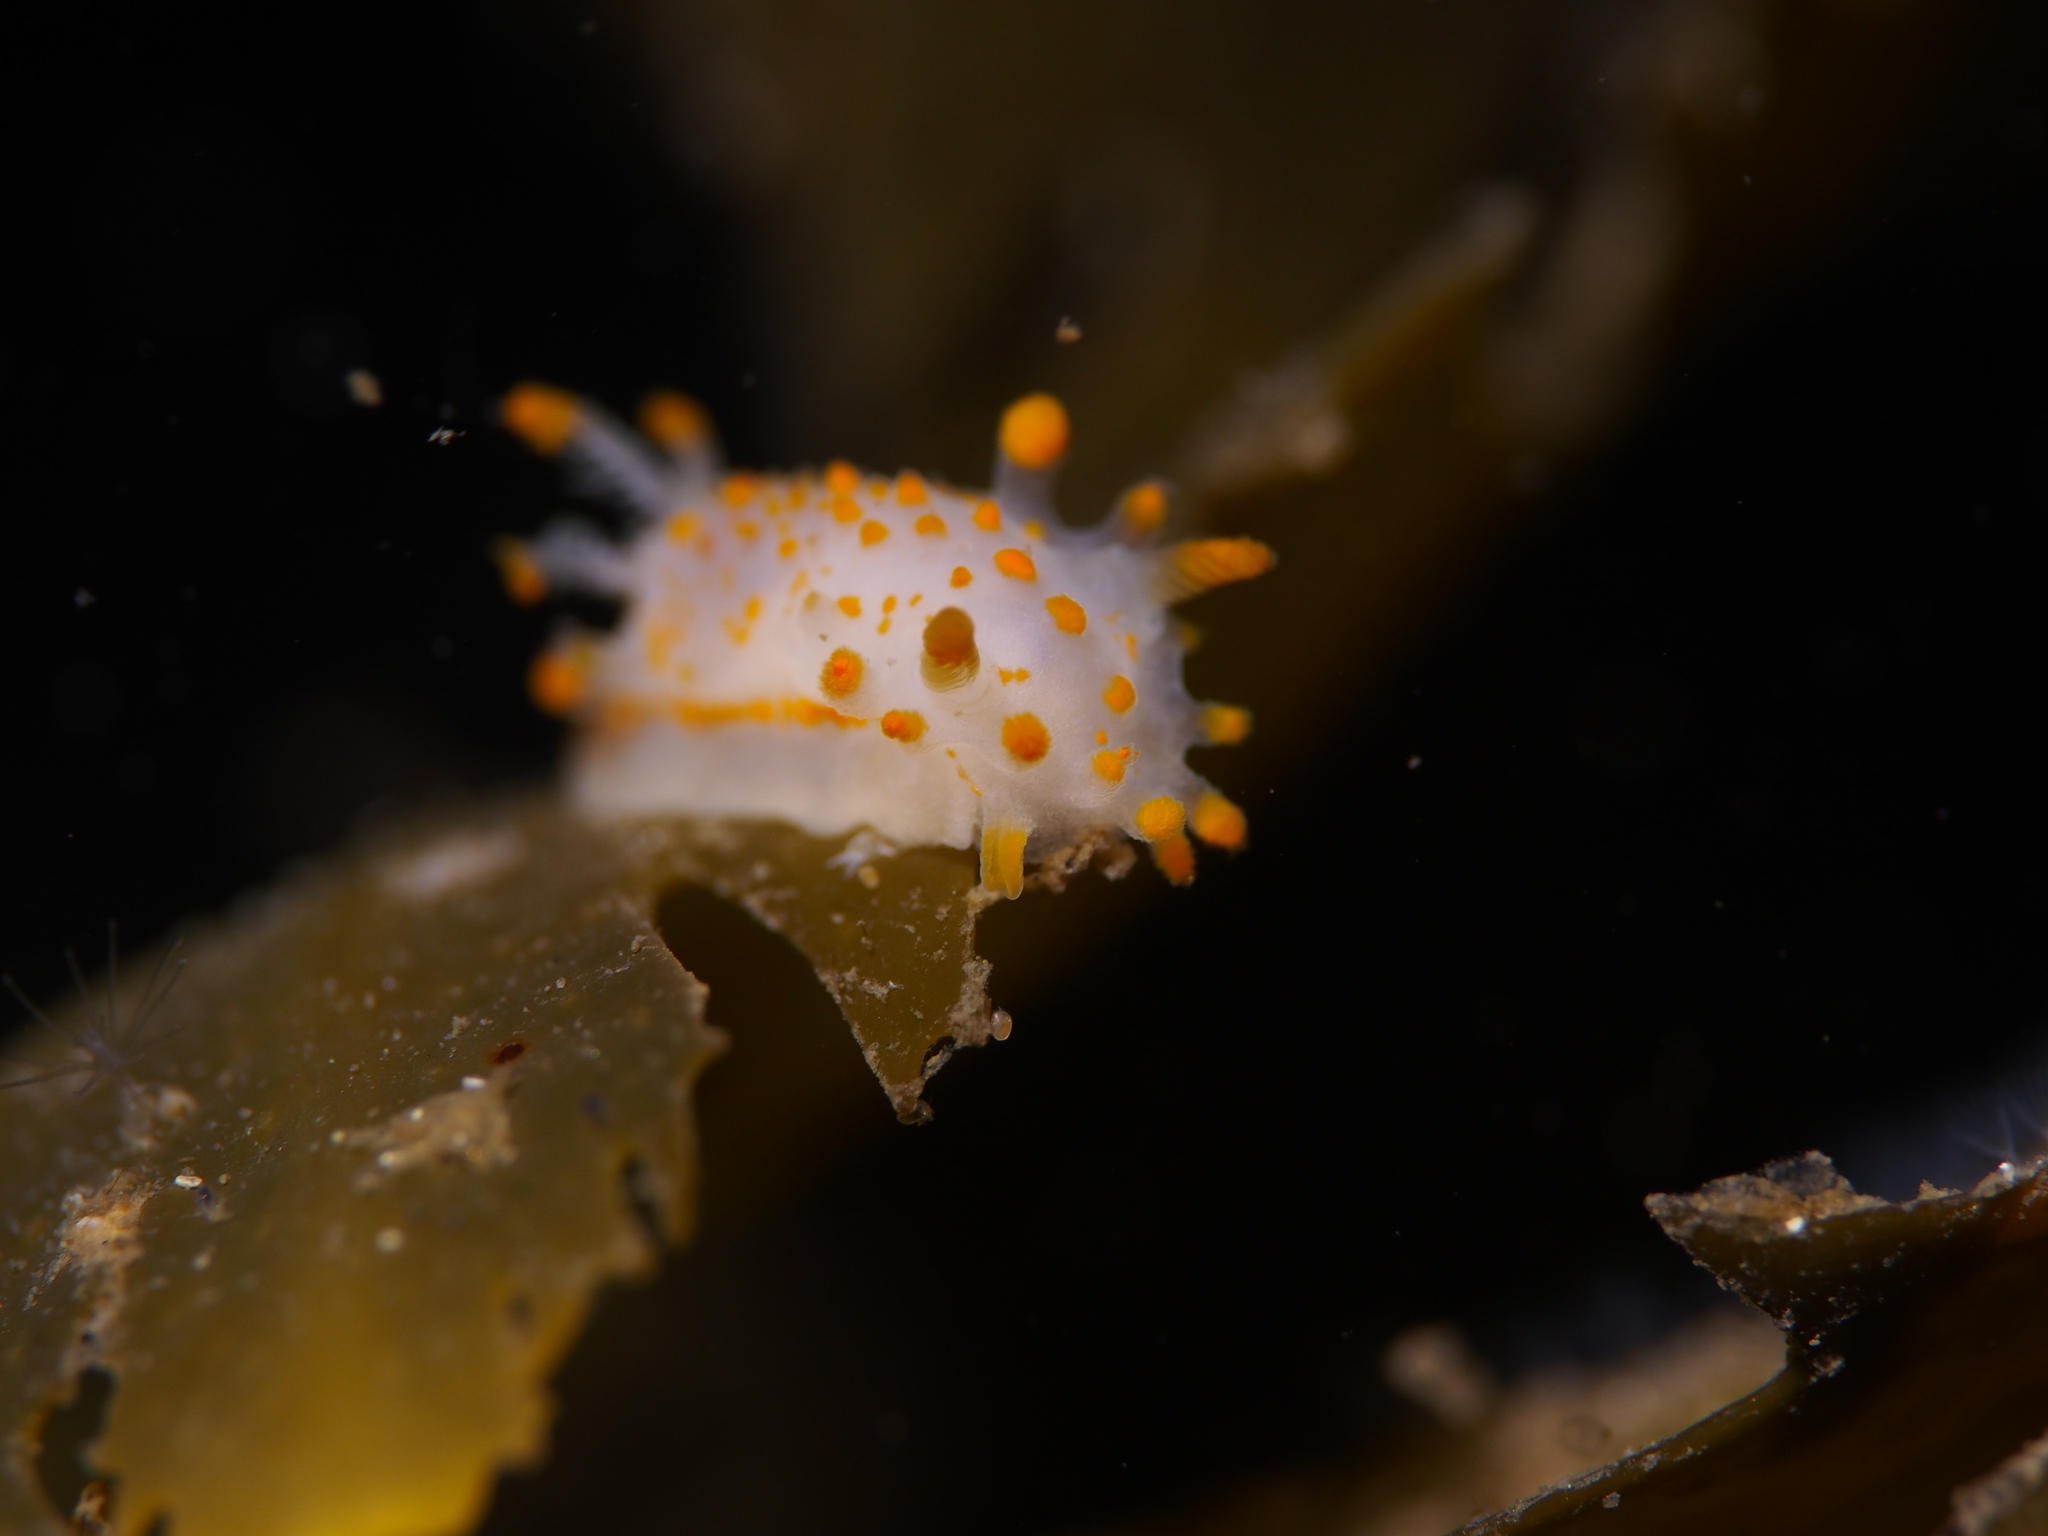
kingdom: Animalia
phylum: Mollusca
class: Gastropoda
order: Nudibranchia
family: Polyceridae
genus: Limacia
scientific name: Limacia clavigera
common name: Orange-clubbed sea slug
